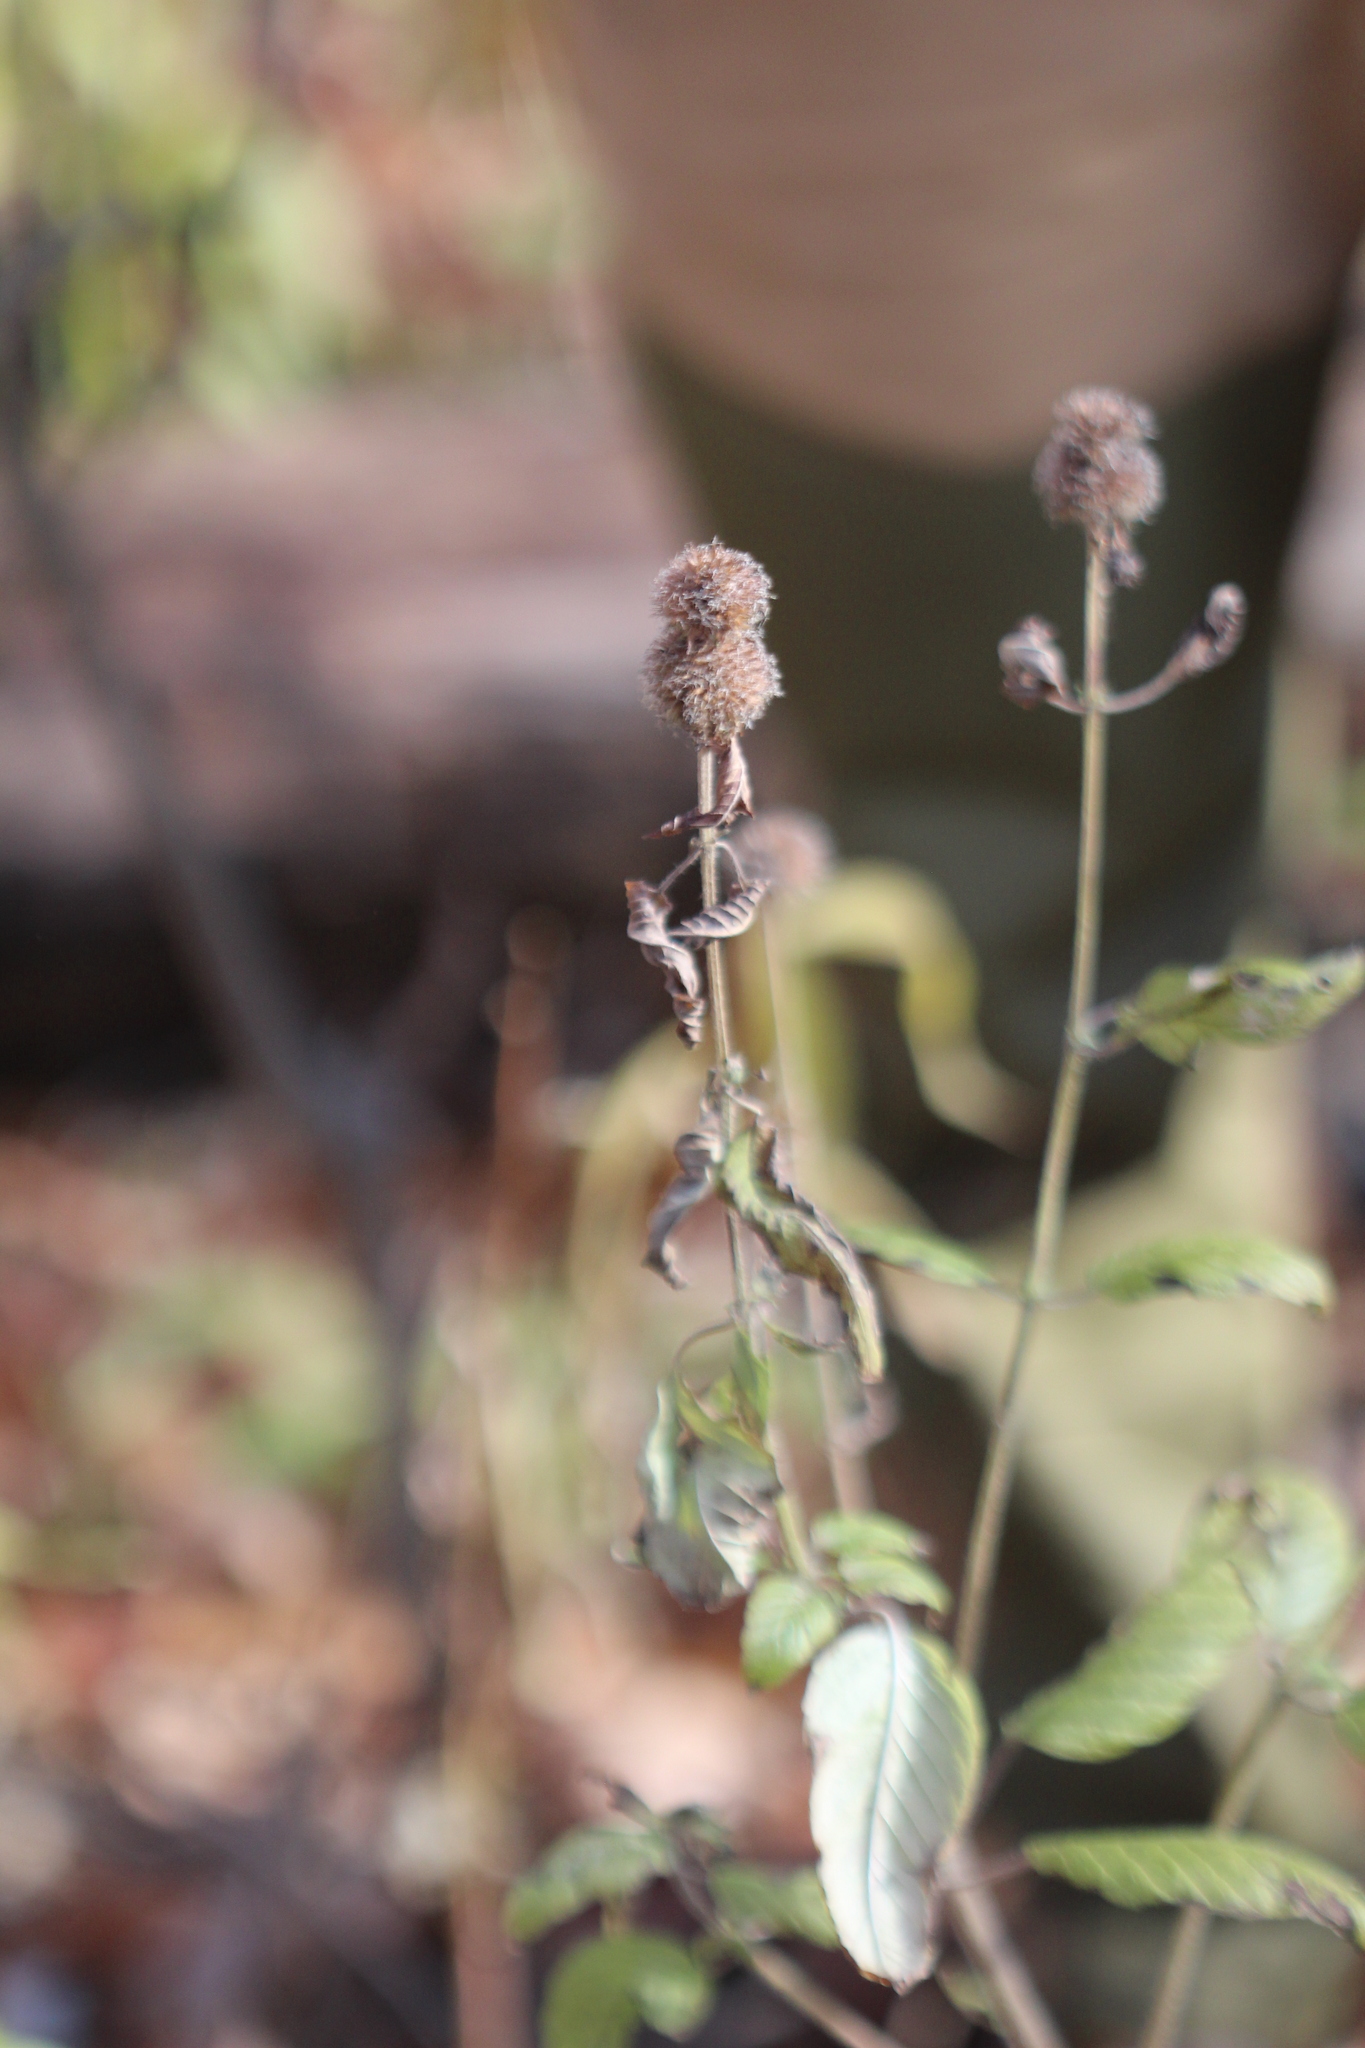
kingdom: Plantae
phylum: Tracheophyta
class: Magnoliopsida
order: Lamiales
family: Lamiaceae
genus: Monarda
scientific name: Monarda fistulosa
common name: Purple beebalm
